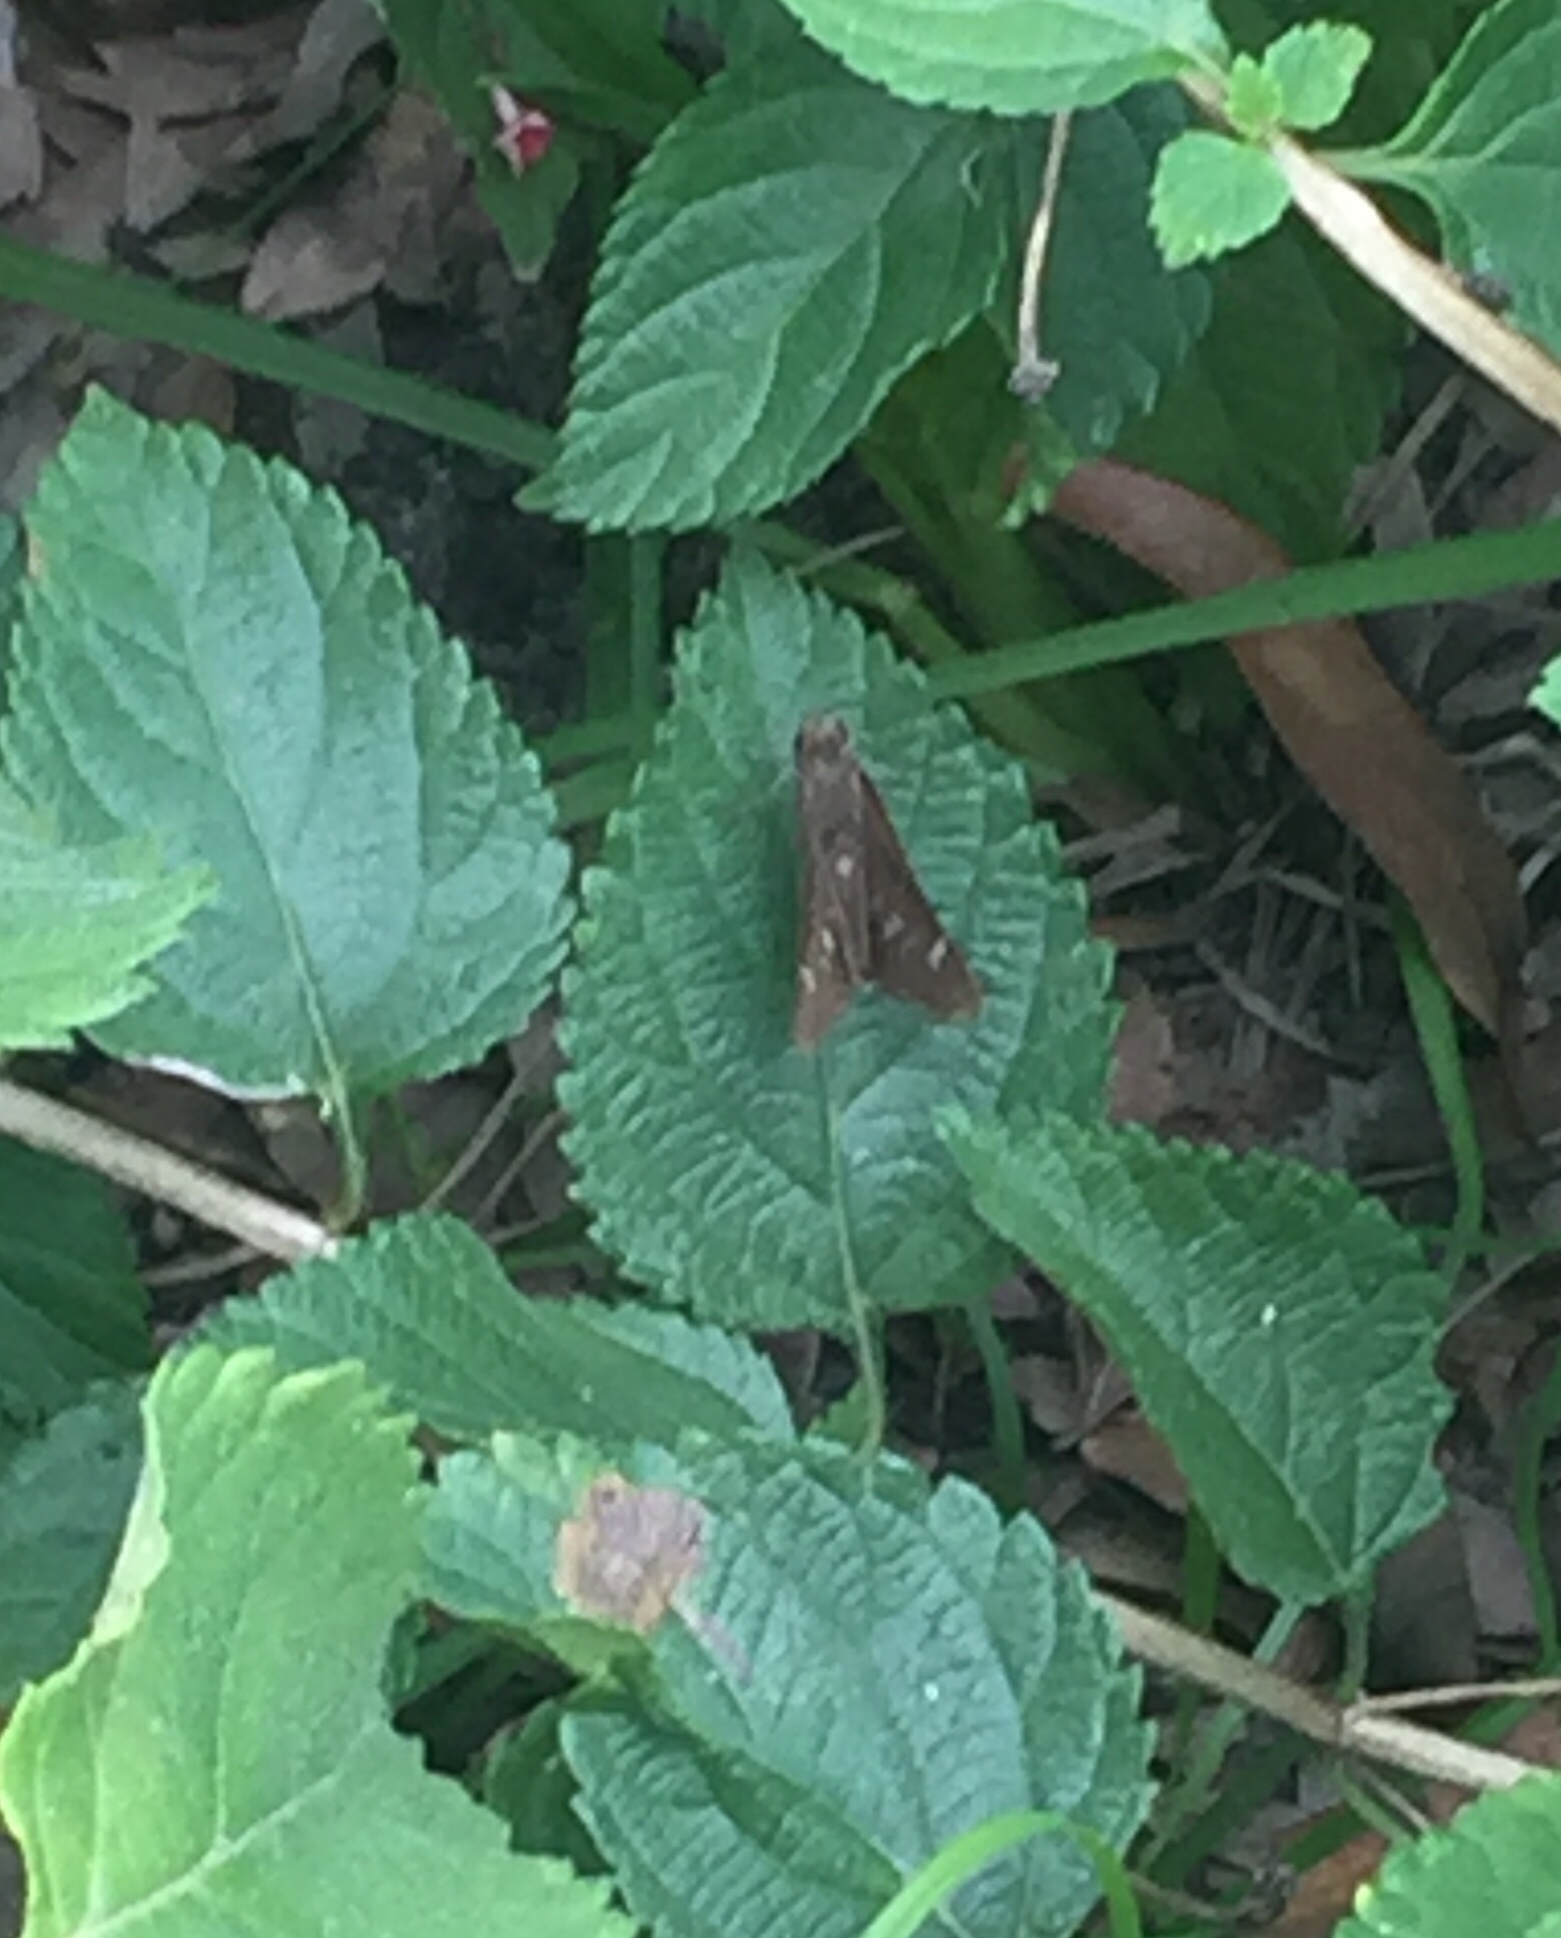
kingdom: Animalia
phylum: Arthropoda
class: Insecta
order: Lepidoptera
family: Hesperiidae
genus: Lerema
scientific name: Lerema accius
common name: Clouded skipper
